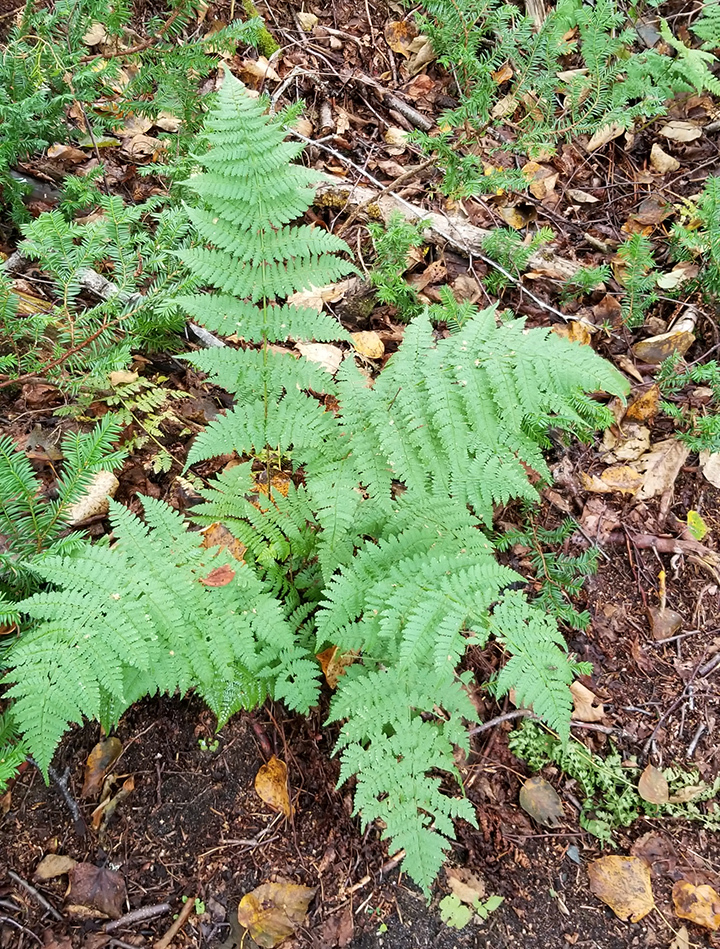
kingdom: Plantae
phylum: Tracheophyta
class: Polypodiopsida
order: Polypodiales
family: Dryopteridaceae
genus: Dryopteris
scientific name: Dryopteris intermedia
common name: Evergreen wood fern
